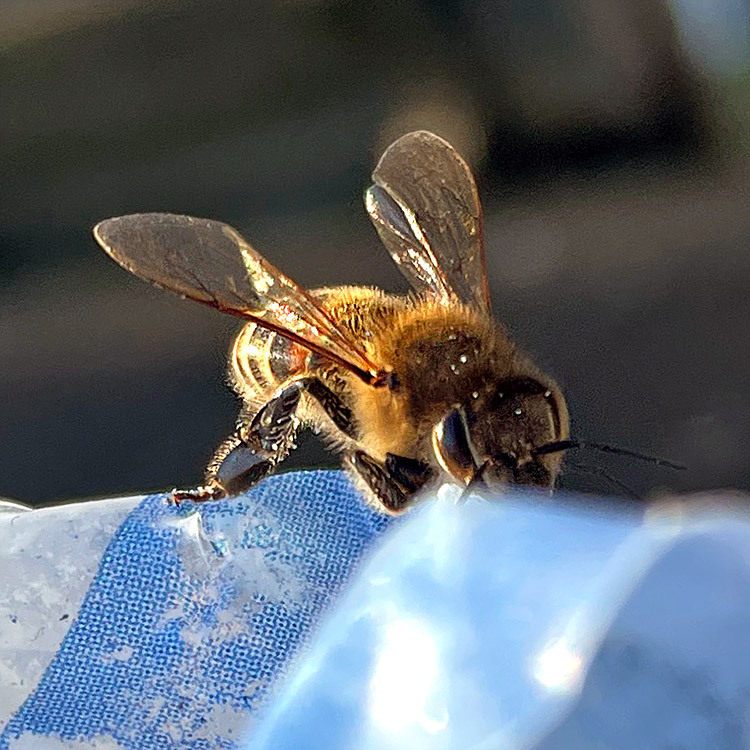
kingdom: Animalia
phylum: Arthropoda
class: Insecta
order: Hymenoptera
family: Apidae
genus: Apis
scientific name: Apis mellifera
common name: Honey bee
